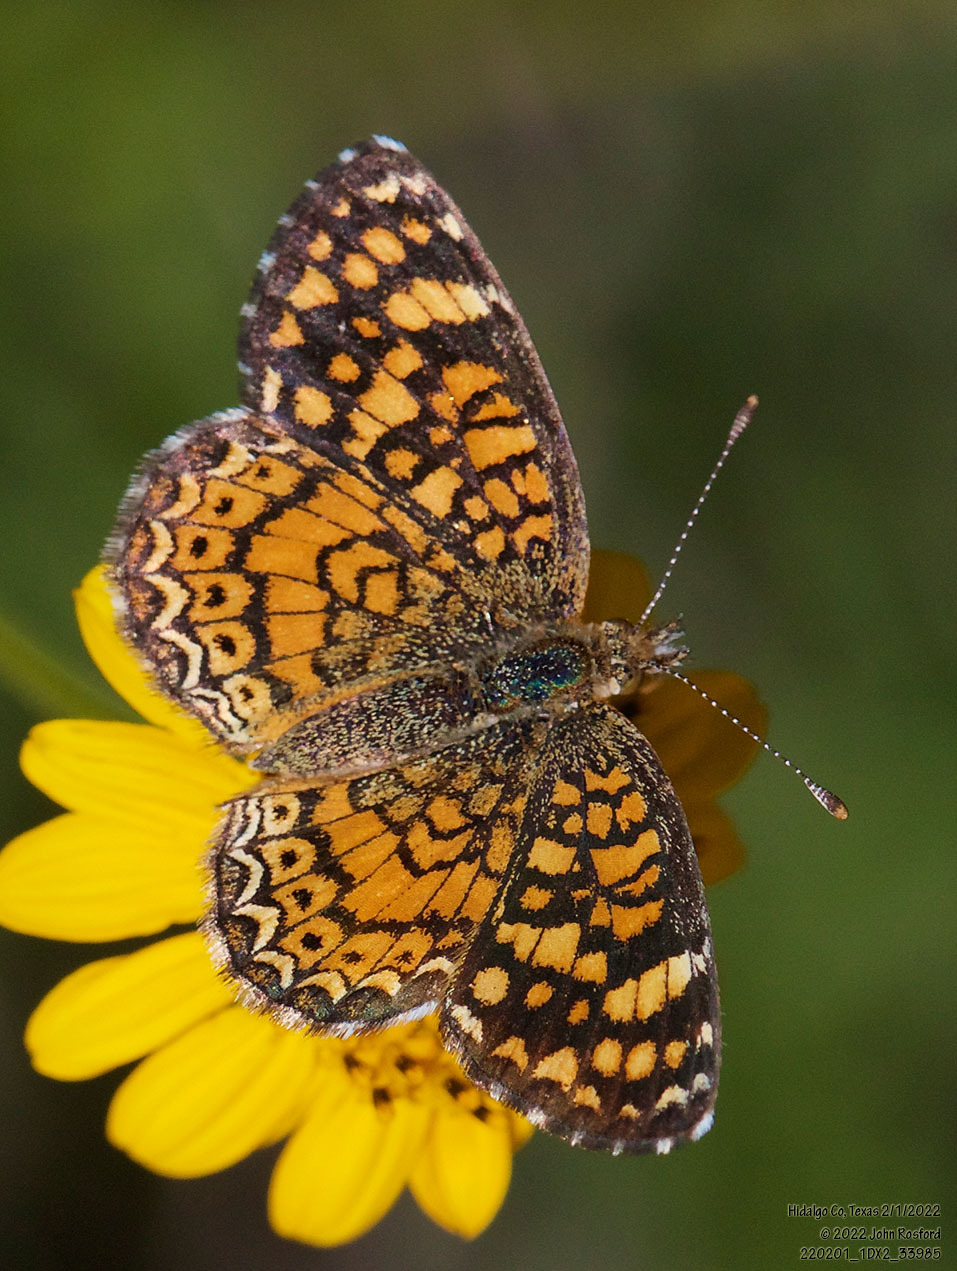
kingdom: Animalia
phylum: Arthropoda
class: Insecta
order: Lepidoptera
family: Nymphalidae
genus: Phyciodes
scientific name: Phyciodes vesta
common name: Vesta crescent
